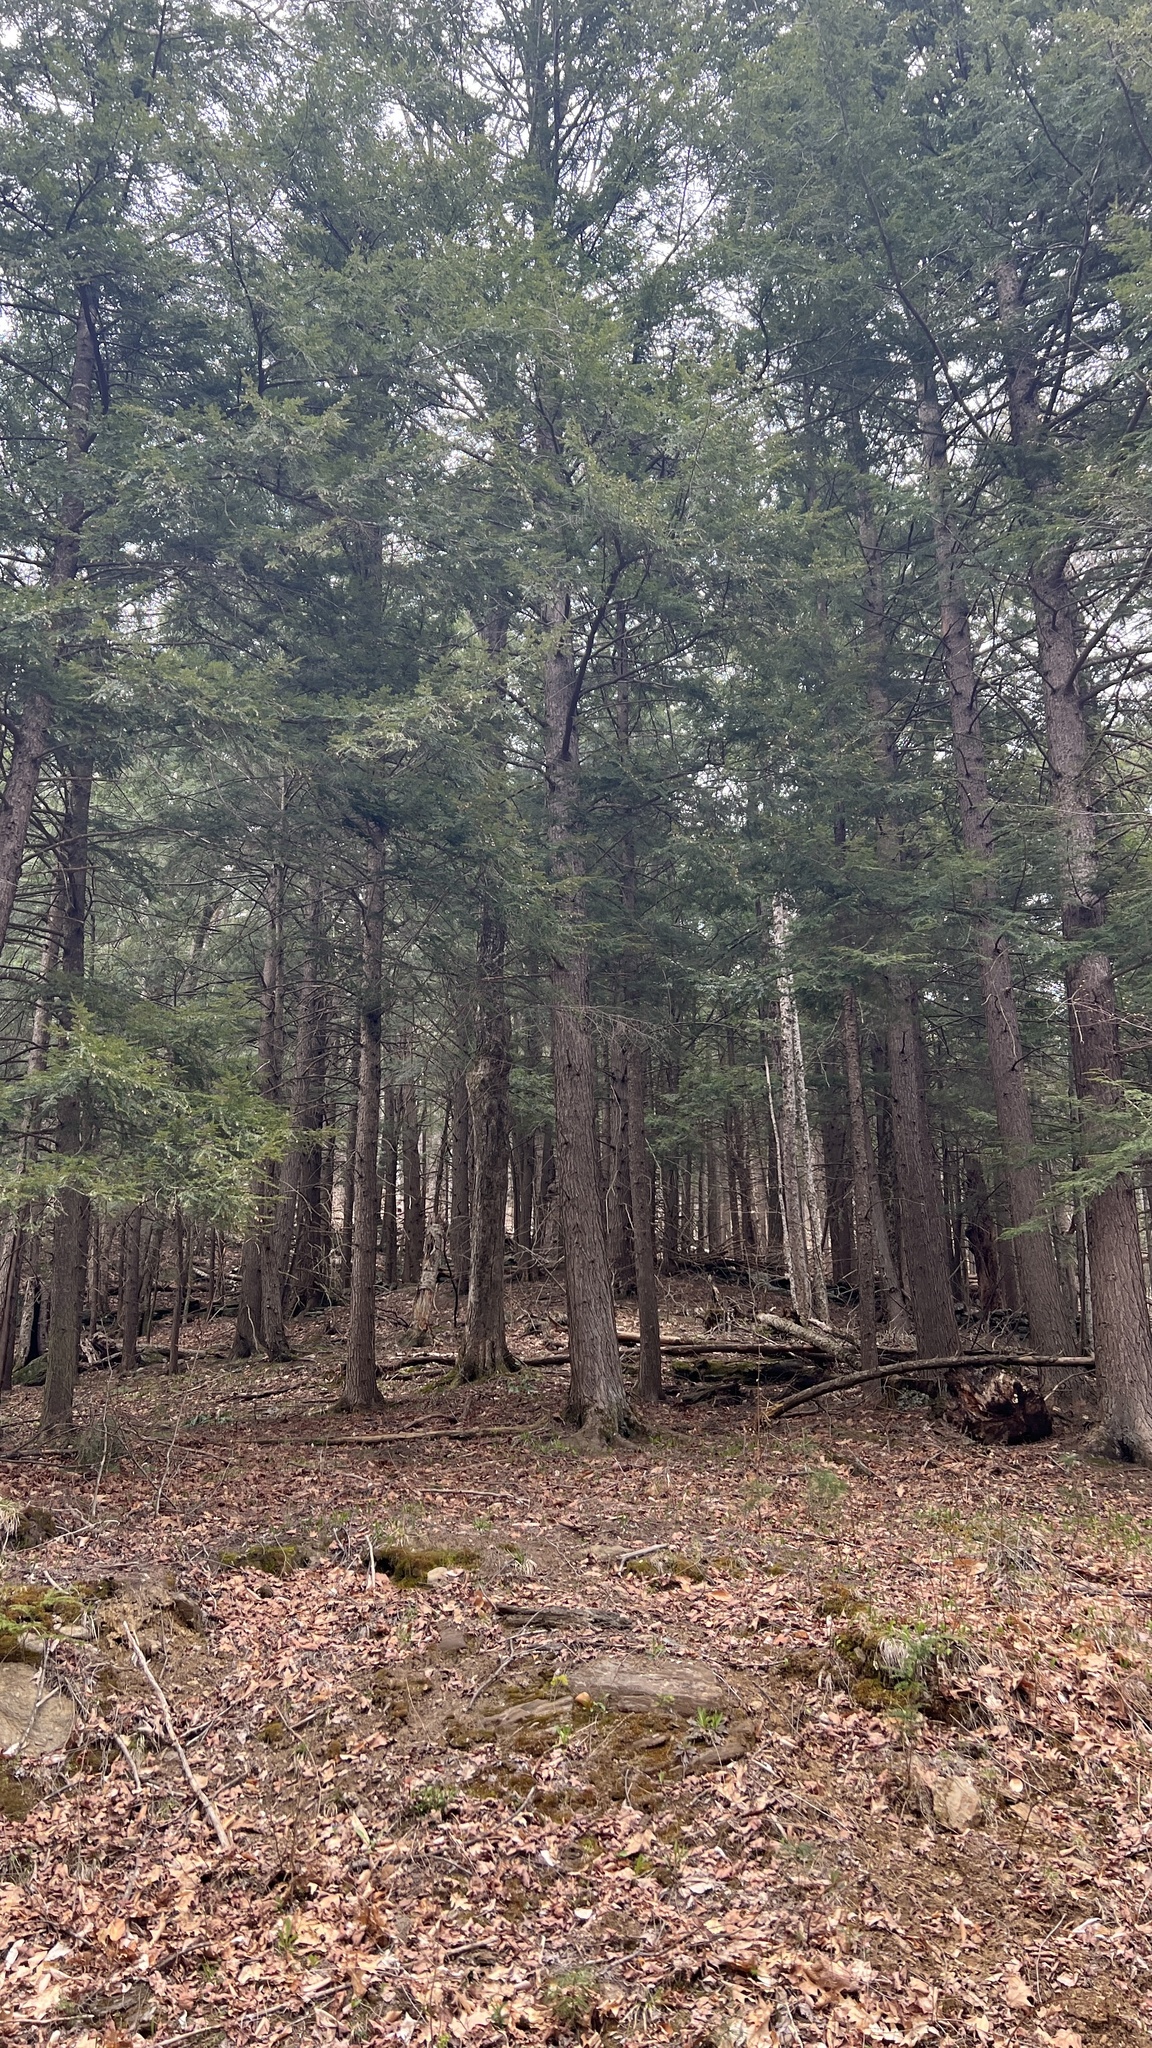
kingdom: Plantae
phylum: Tracheophyta
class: Pinopsida
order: Pinales
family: Pinaceae
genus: Tsuga
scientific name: Tsuga canadensis
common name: Eastern hemlock
